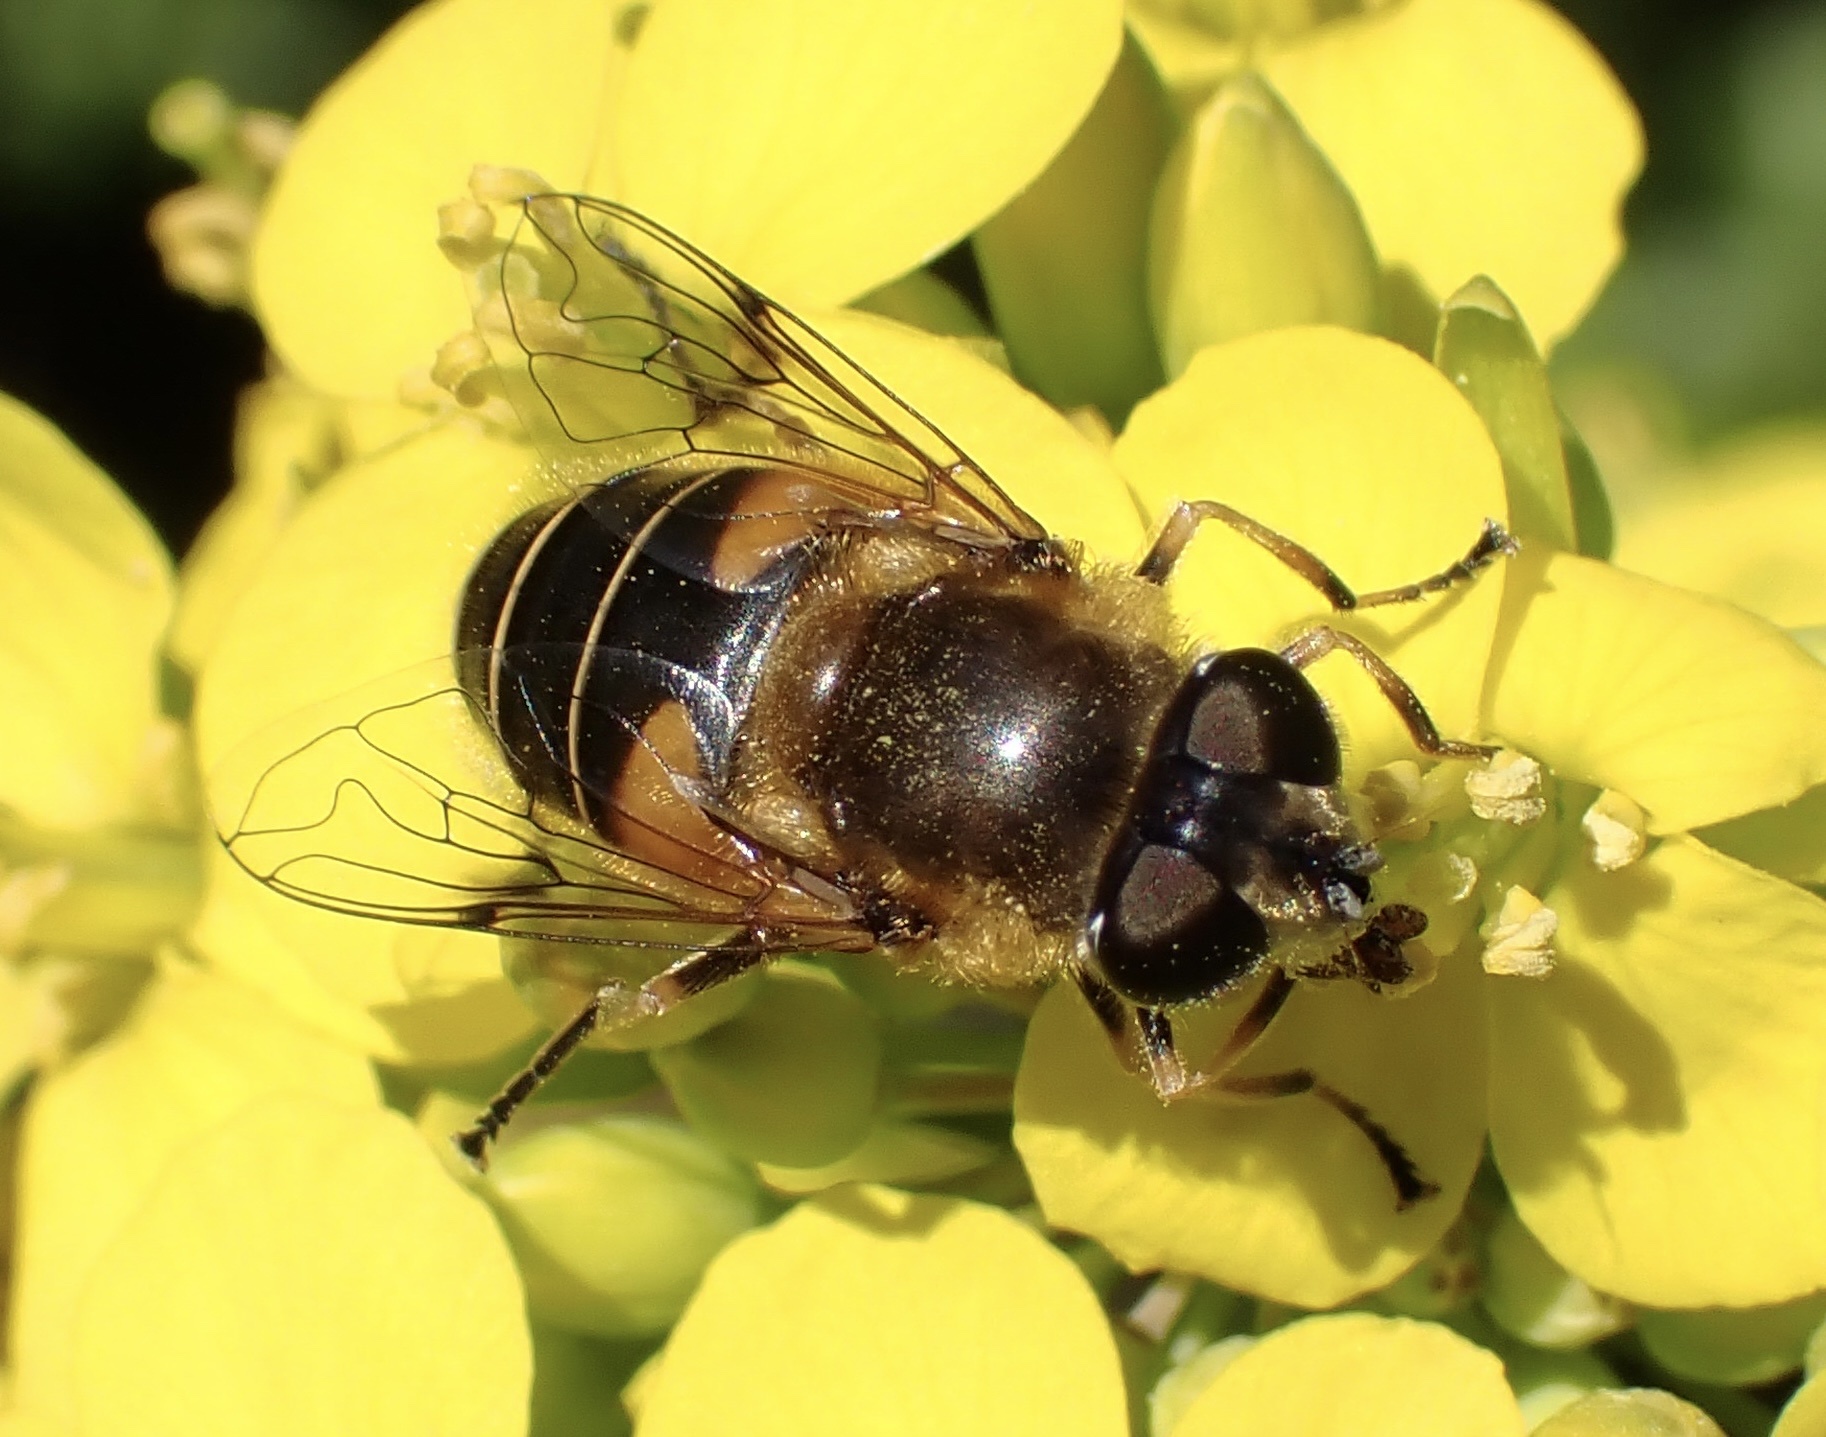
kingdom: Animalia
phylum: Arthropoda
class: Insecta
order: Diptera
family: Syrphidae
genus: Cheilosia
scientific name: Cheilosia morio
